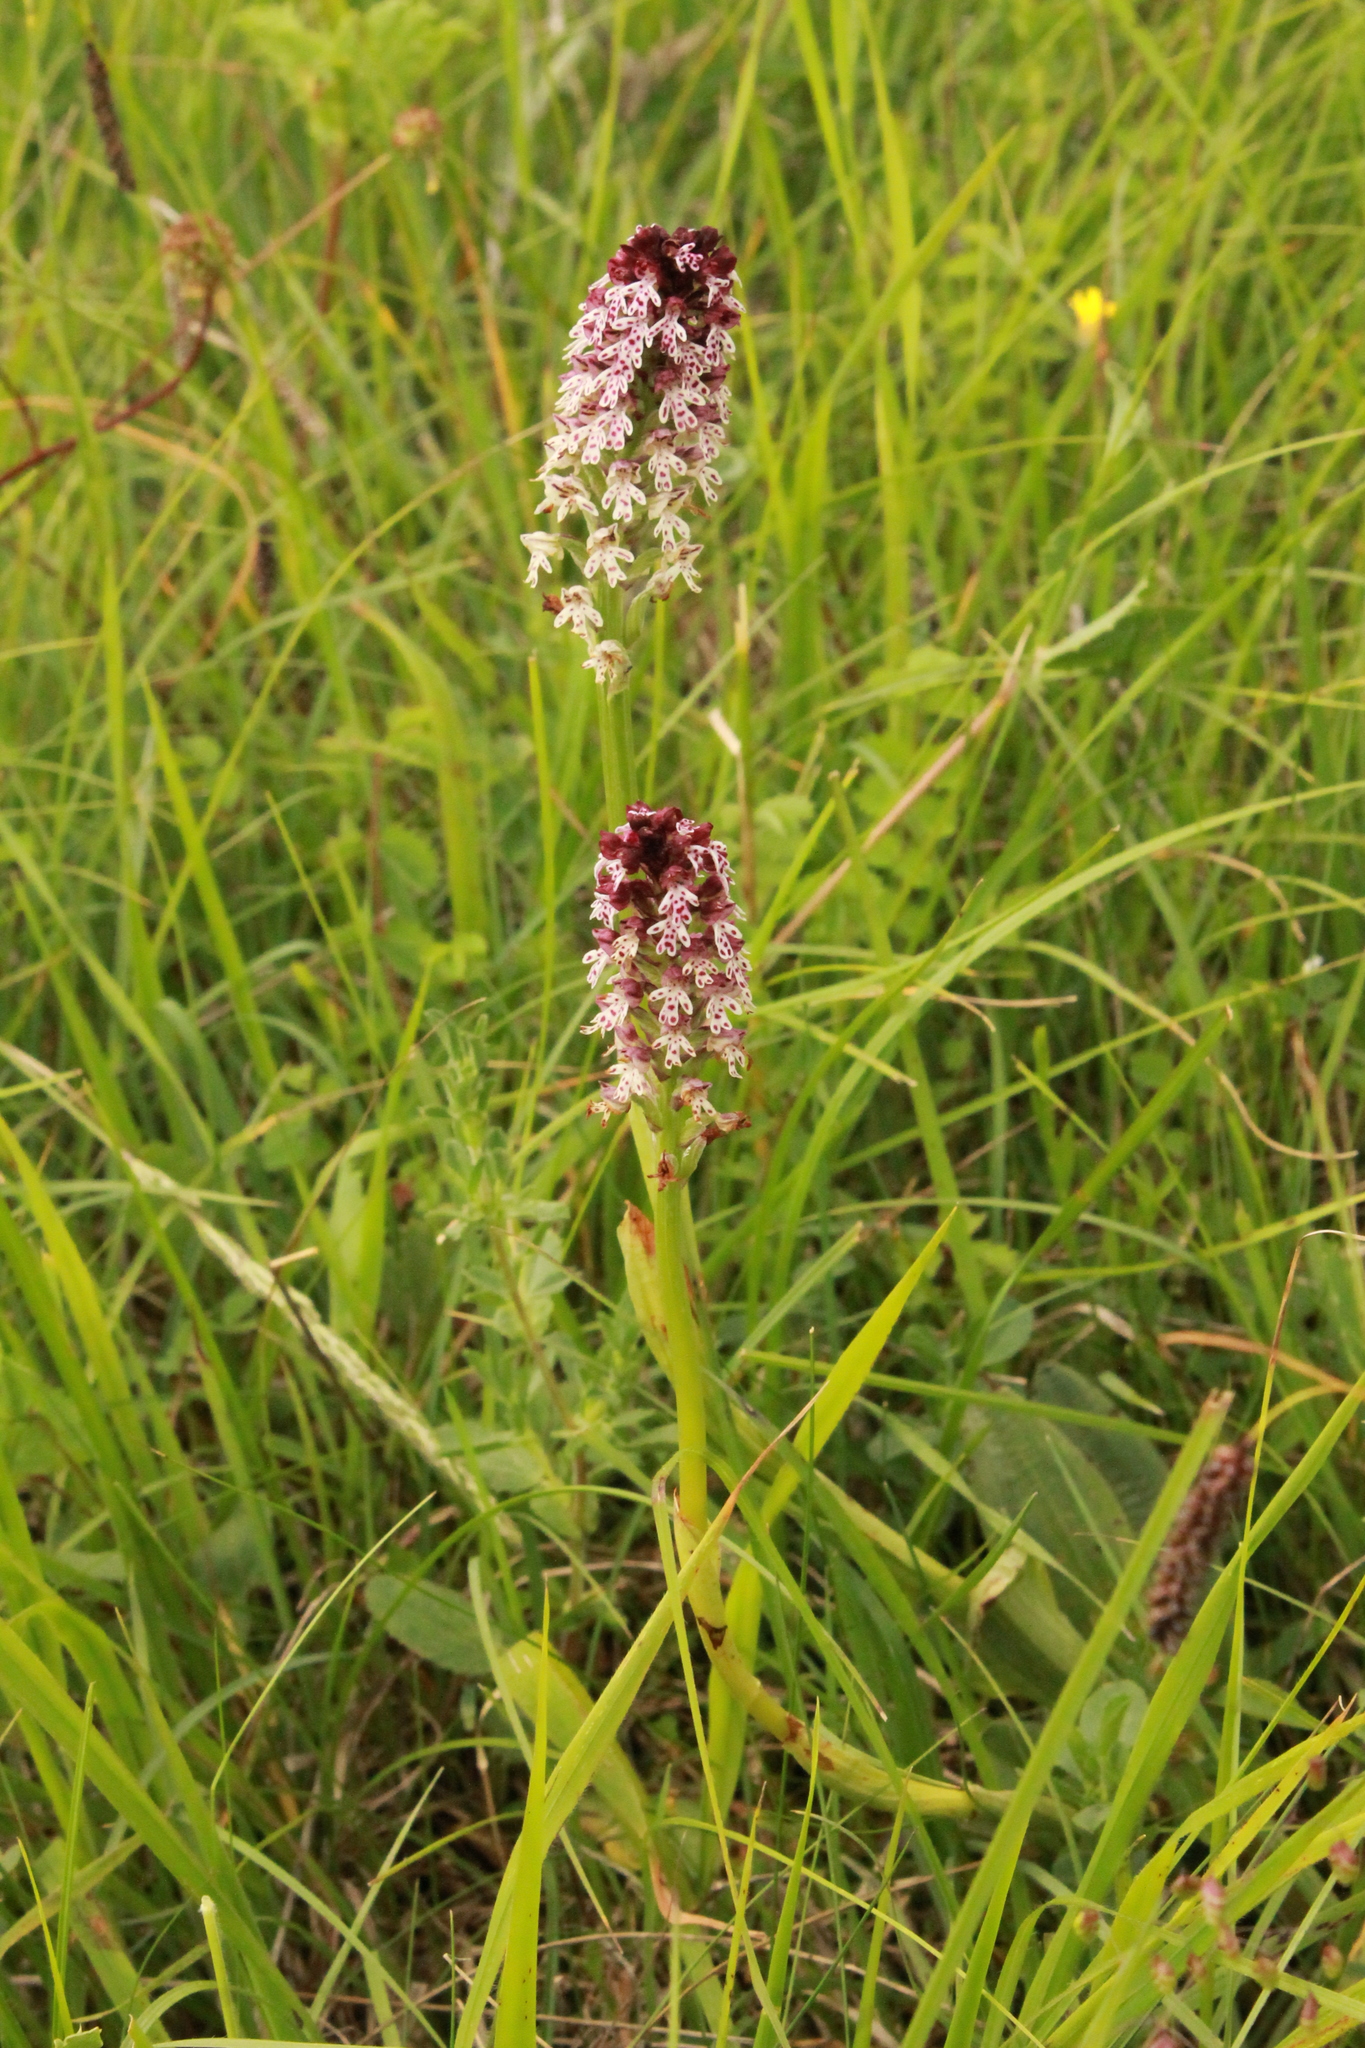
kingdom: Plantae
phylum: Tracheophyta
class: Liliopsida
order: Asparagales
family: Orchidaceae
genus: Neotinea
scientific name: Neotinea ustulata
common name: Burnt orchid
